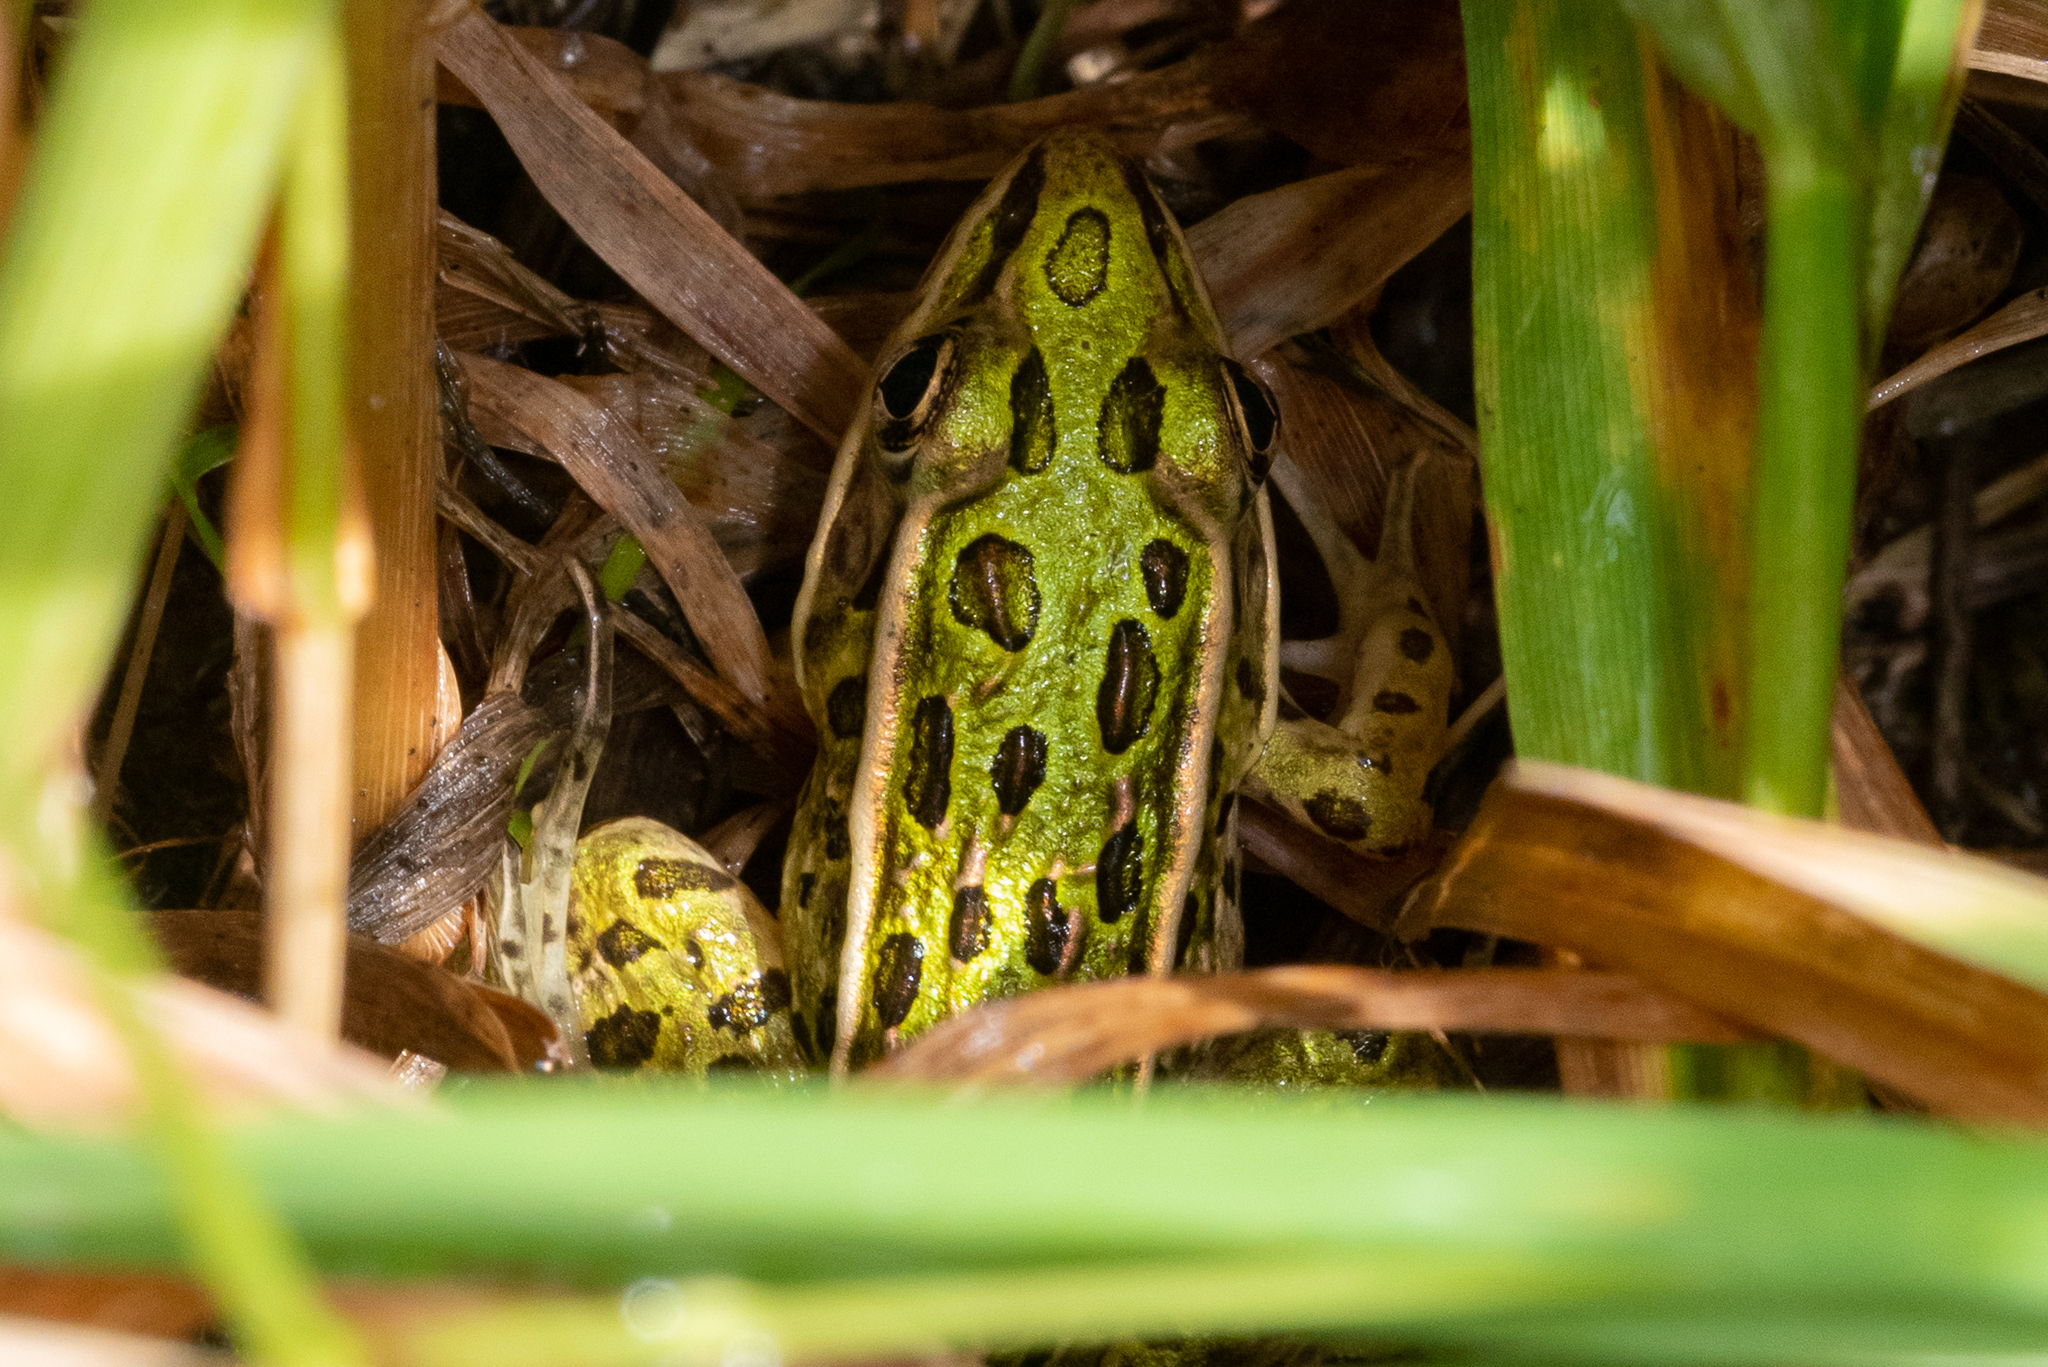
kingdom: Animalia
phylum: Chordata
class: Amphibia
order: Anura
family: Ranidae
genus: Lithobates
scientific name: Lithobates pipiens
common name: Northern leopard frog
